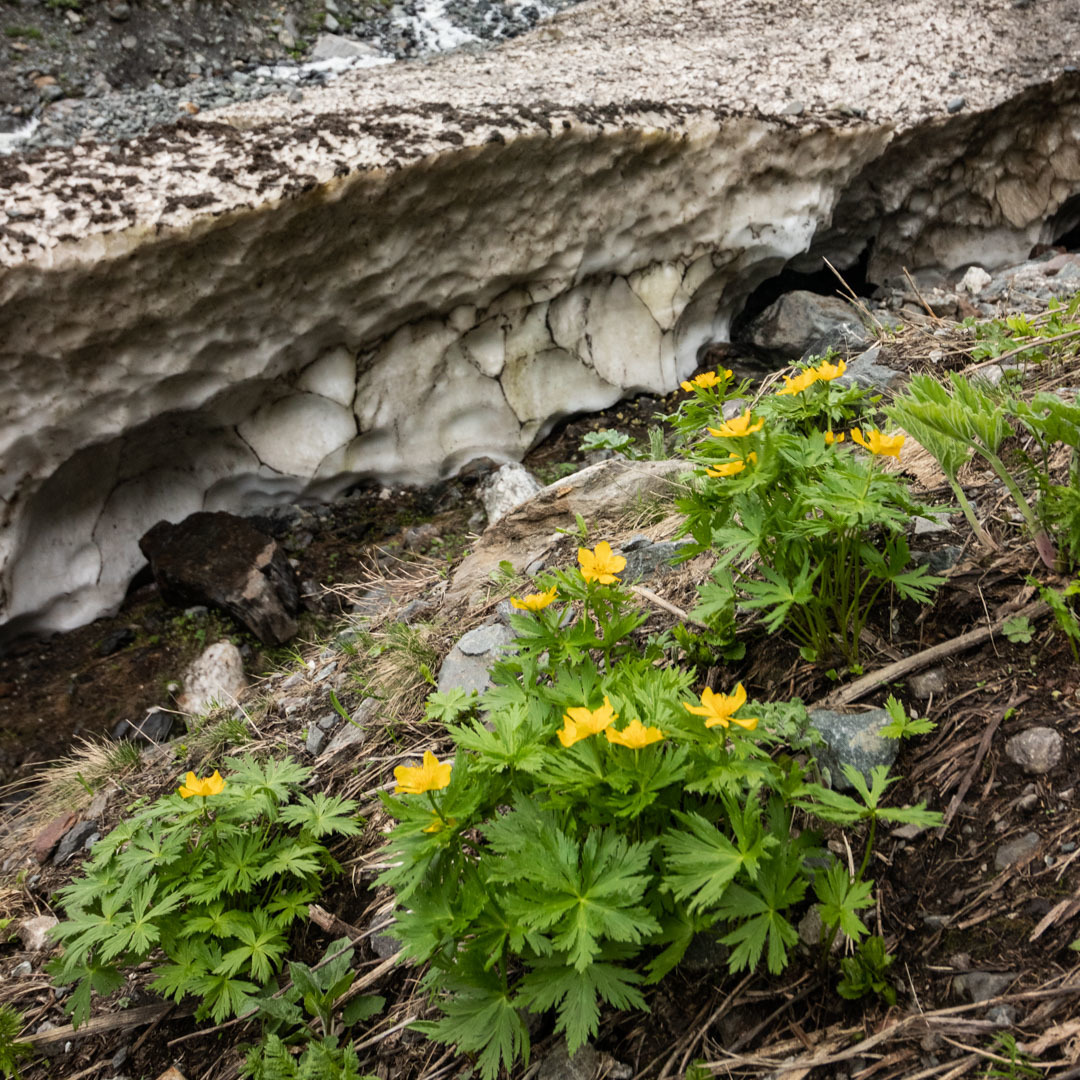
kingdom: Plantae
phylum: Tracheophyta
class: Magnoliopsida
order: Ranunculales
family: Ranunculaceae
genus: Trollius
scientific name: Trollius ranunculinus
